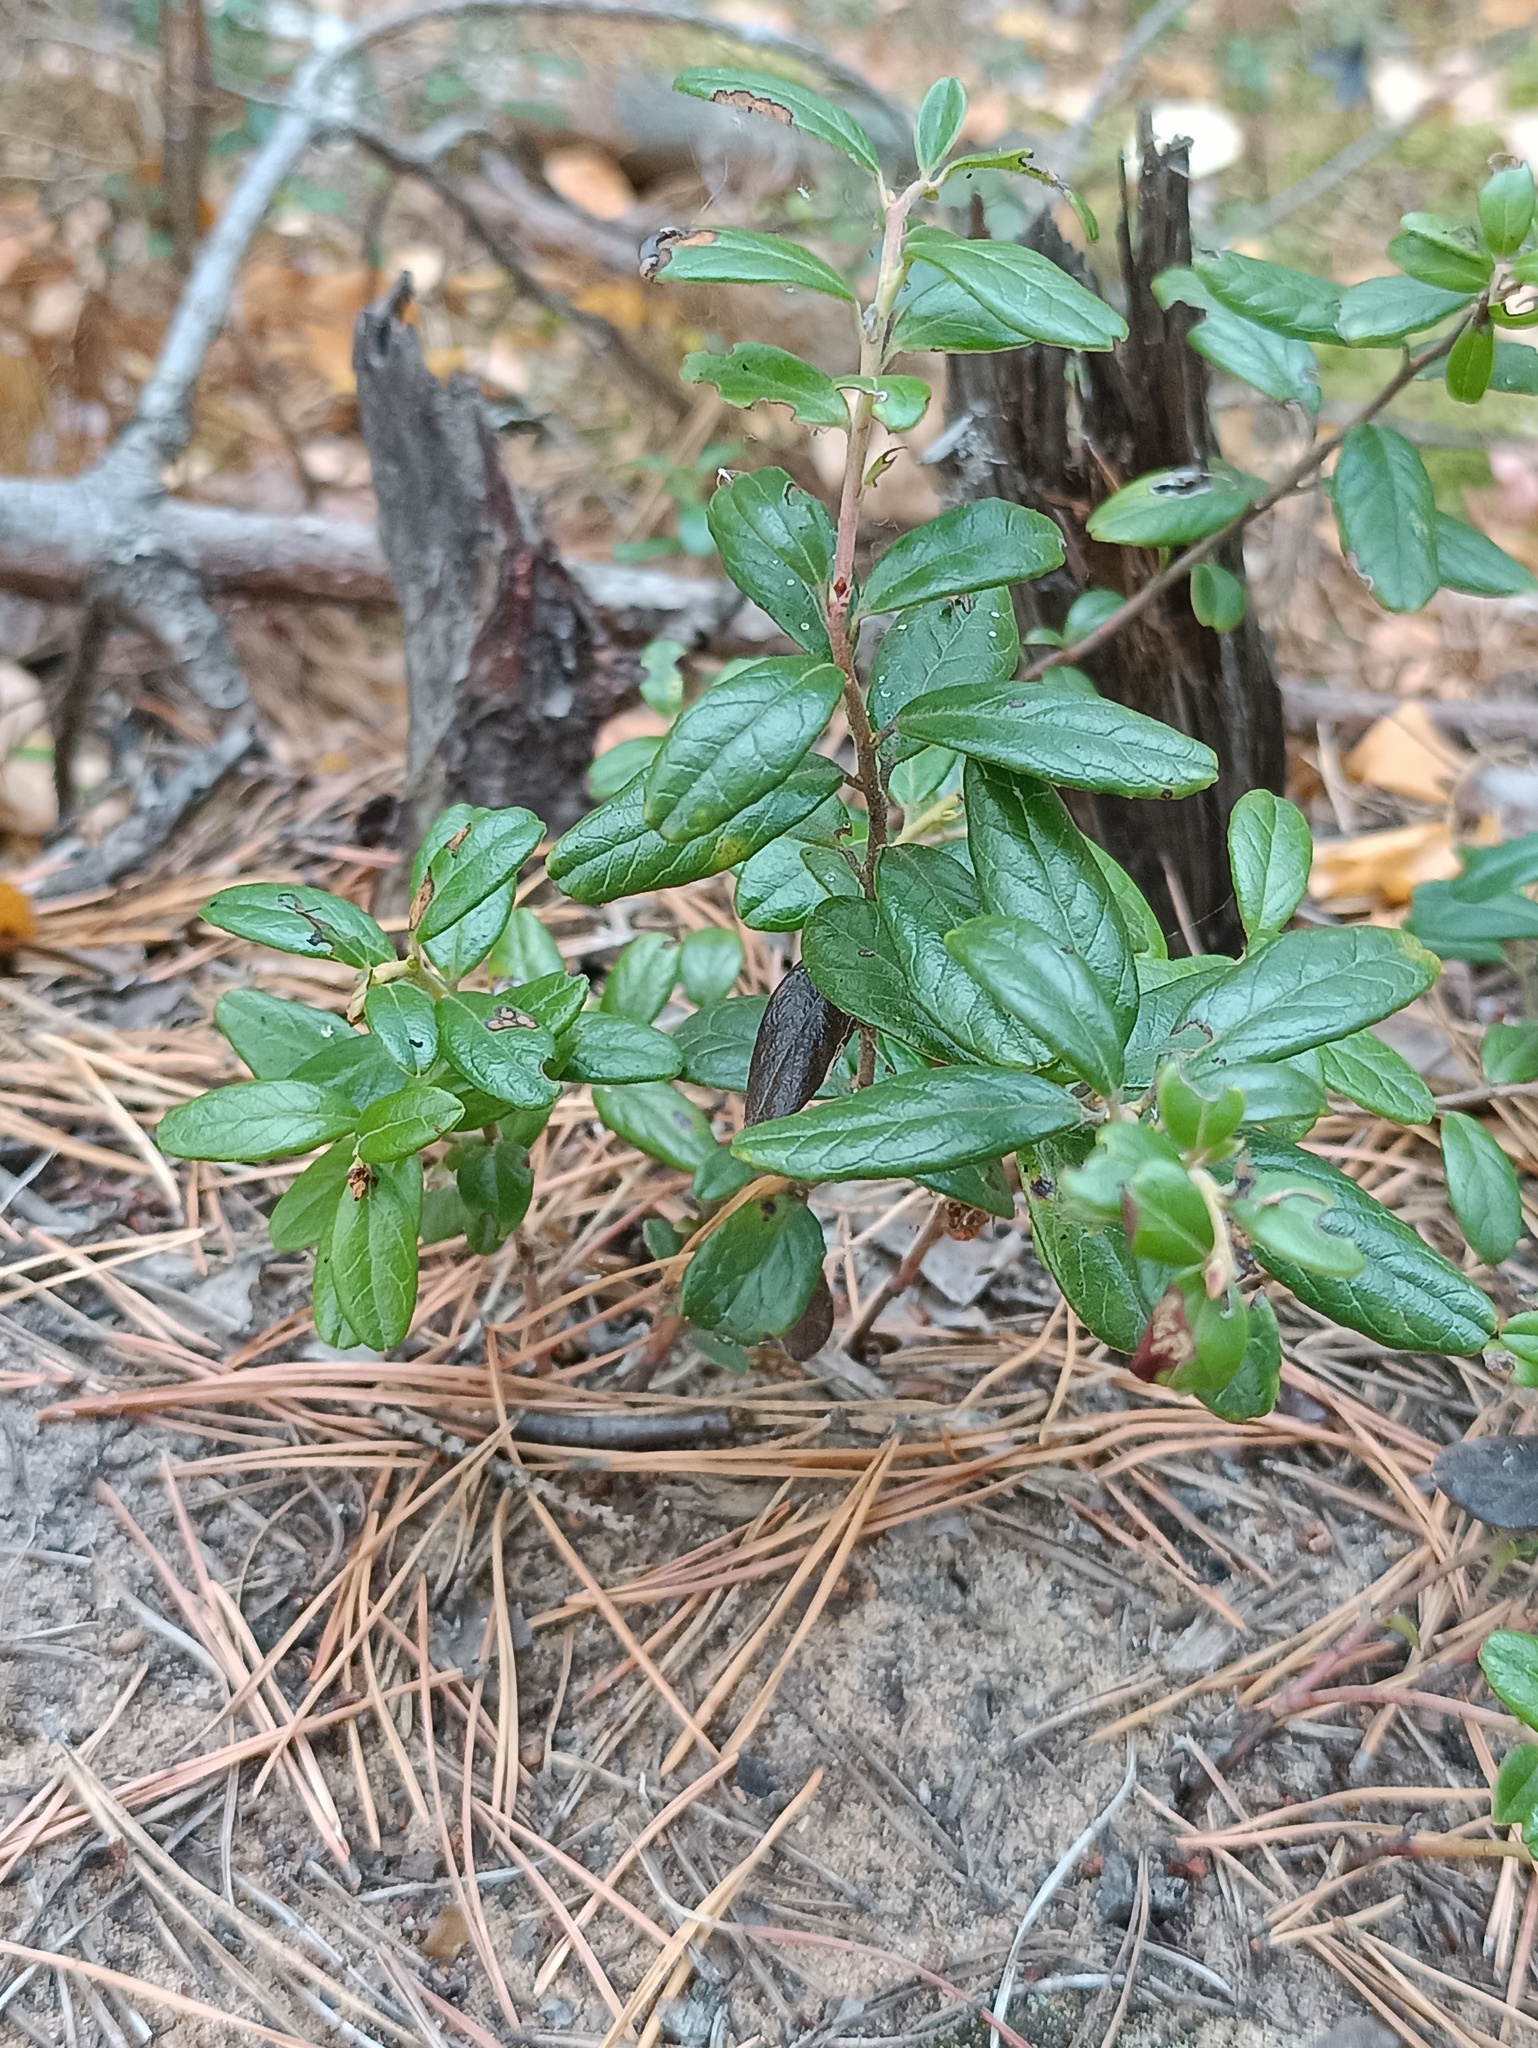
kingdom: Plantae
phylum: Tracheophyta
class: Magnoliopsida
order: Ericales
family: Ericaceae
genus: Vaccinium
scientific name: Vaccinium vitis-idaea
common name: Cowberry
